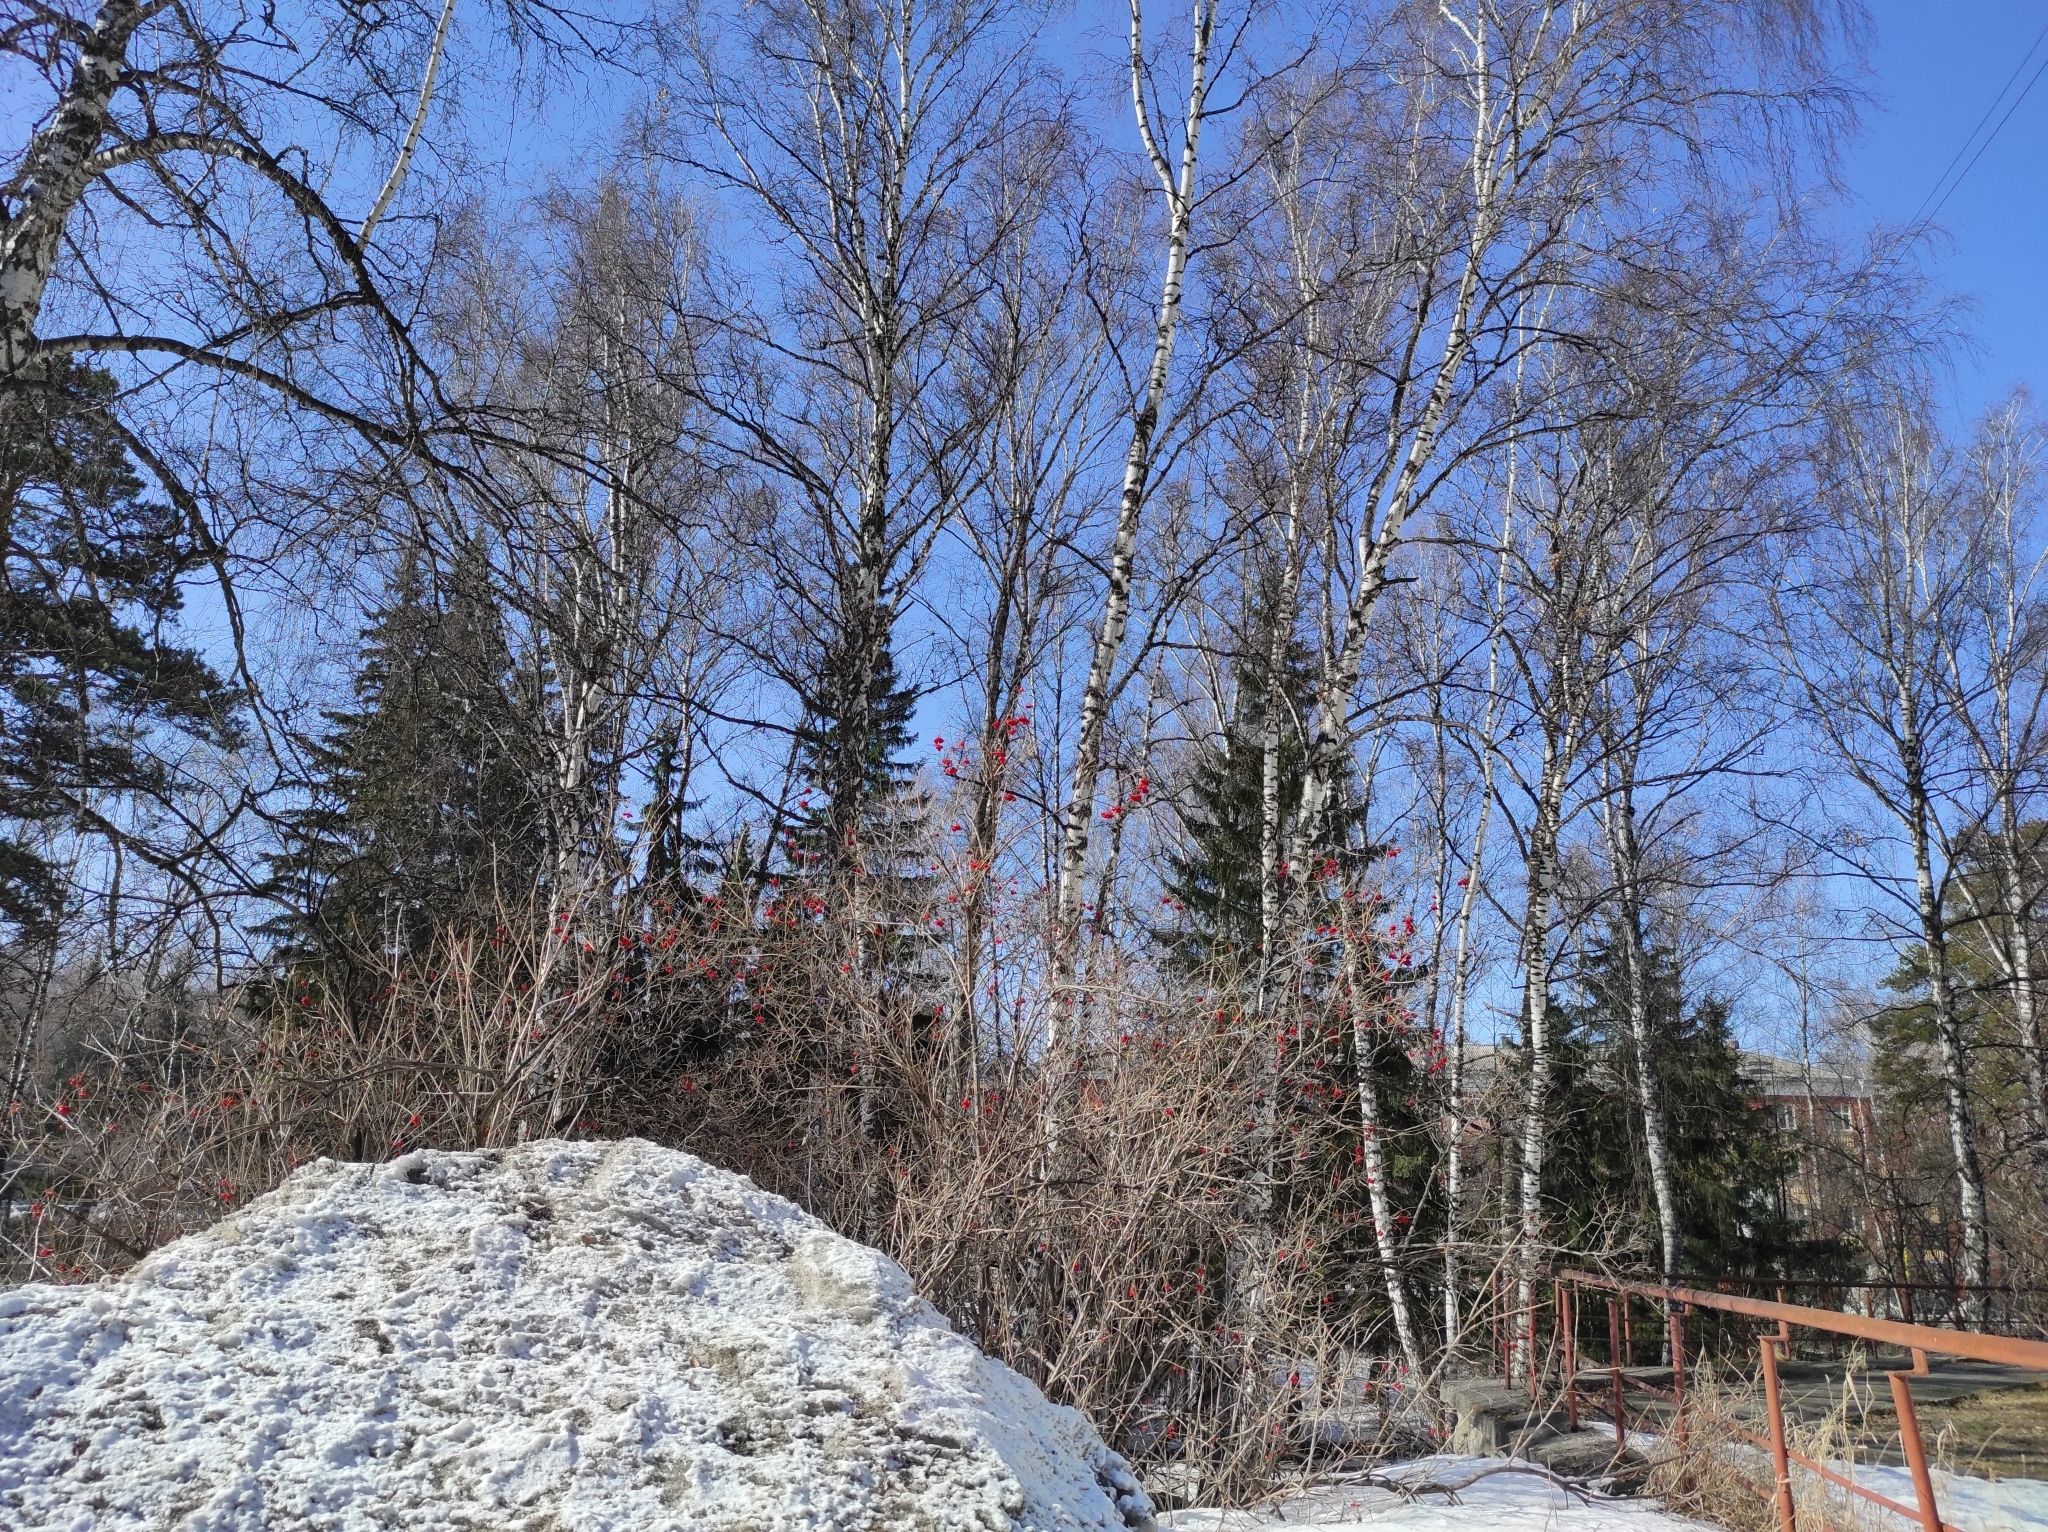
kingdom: Plantae
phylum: Tracheophyta
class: Magnoliopsida
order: Dipsacales
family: Viburnaceae
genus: Viburnum
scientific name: Viburnum opulus
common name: Guelder-rose
